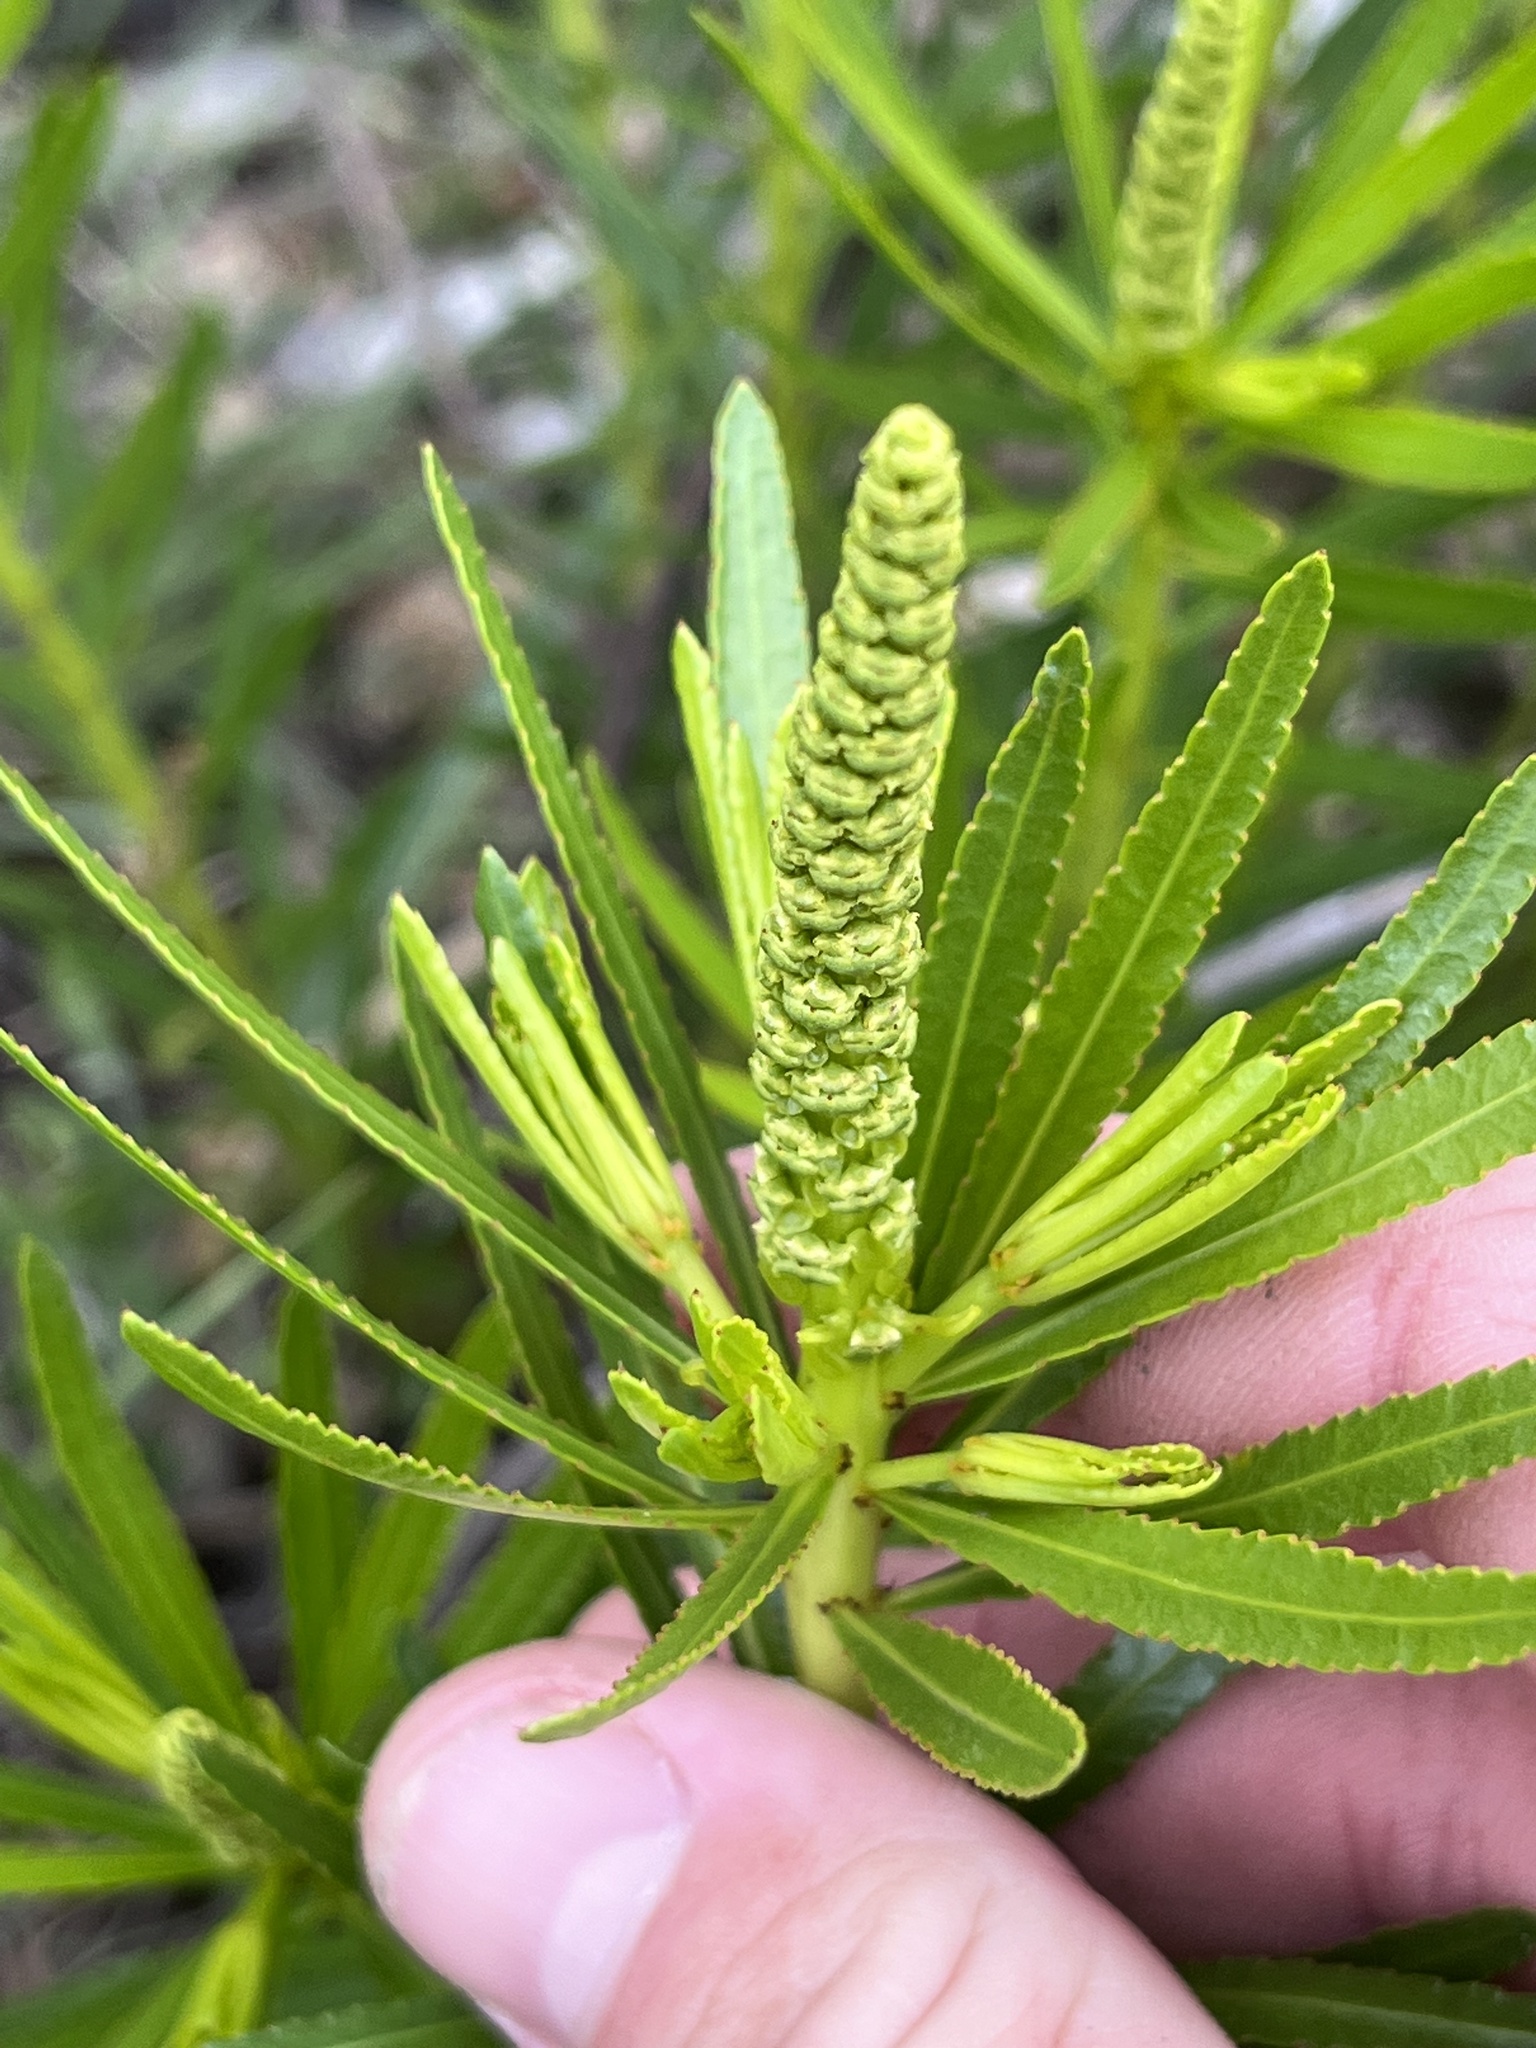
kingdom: Plantae
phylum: Tracheophyta
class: Magnoliopsida
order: Malpighiales
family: Euphorbiaceae
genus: Stillingia
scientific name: Stillingia texana
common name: Texas stillingia
